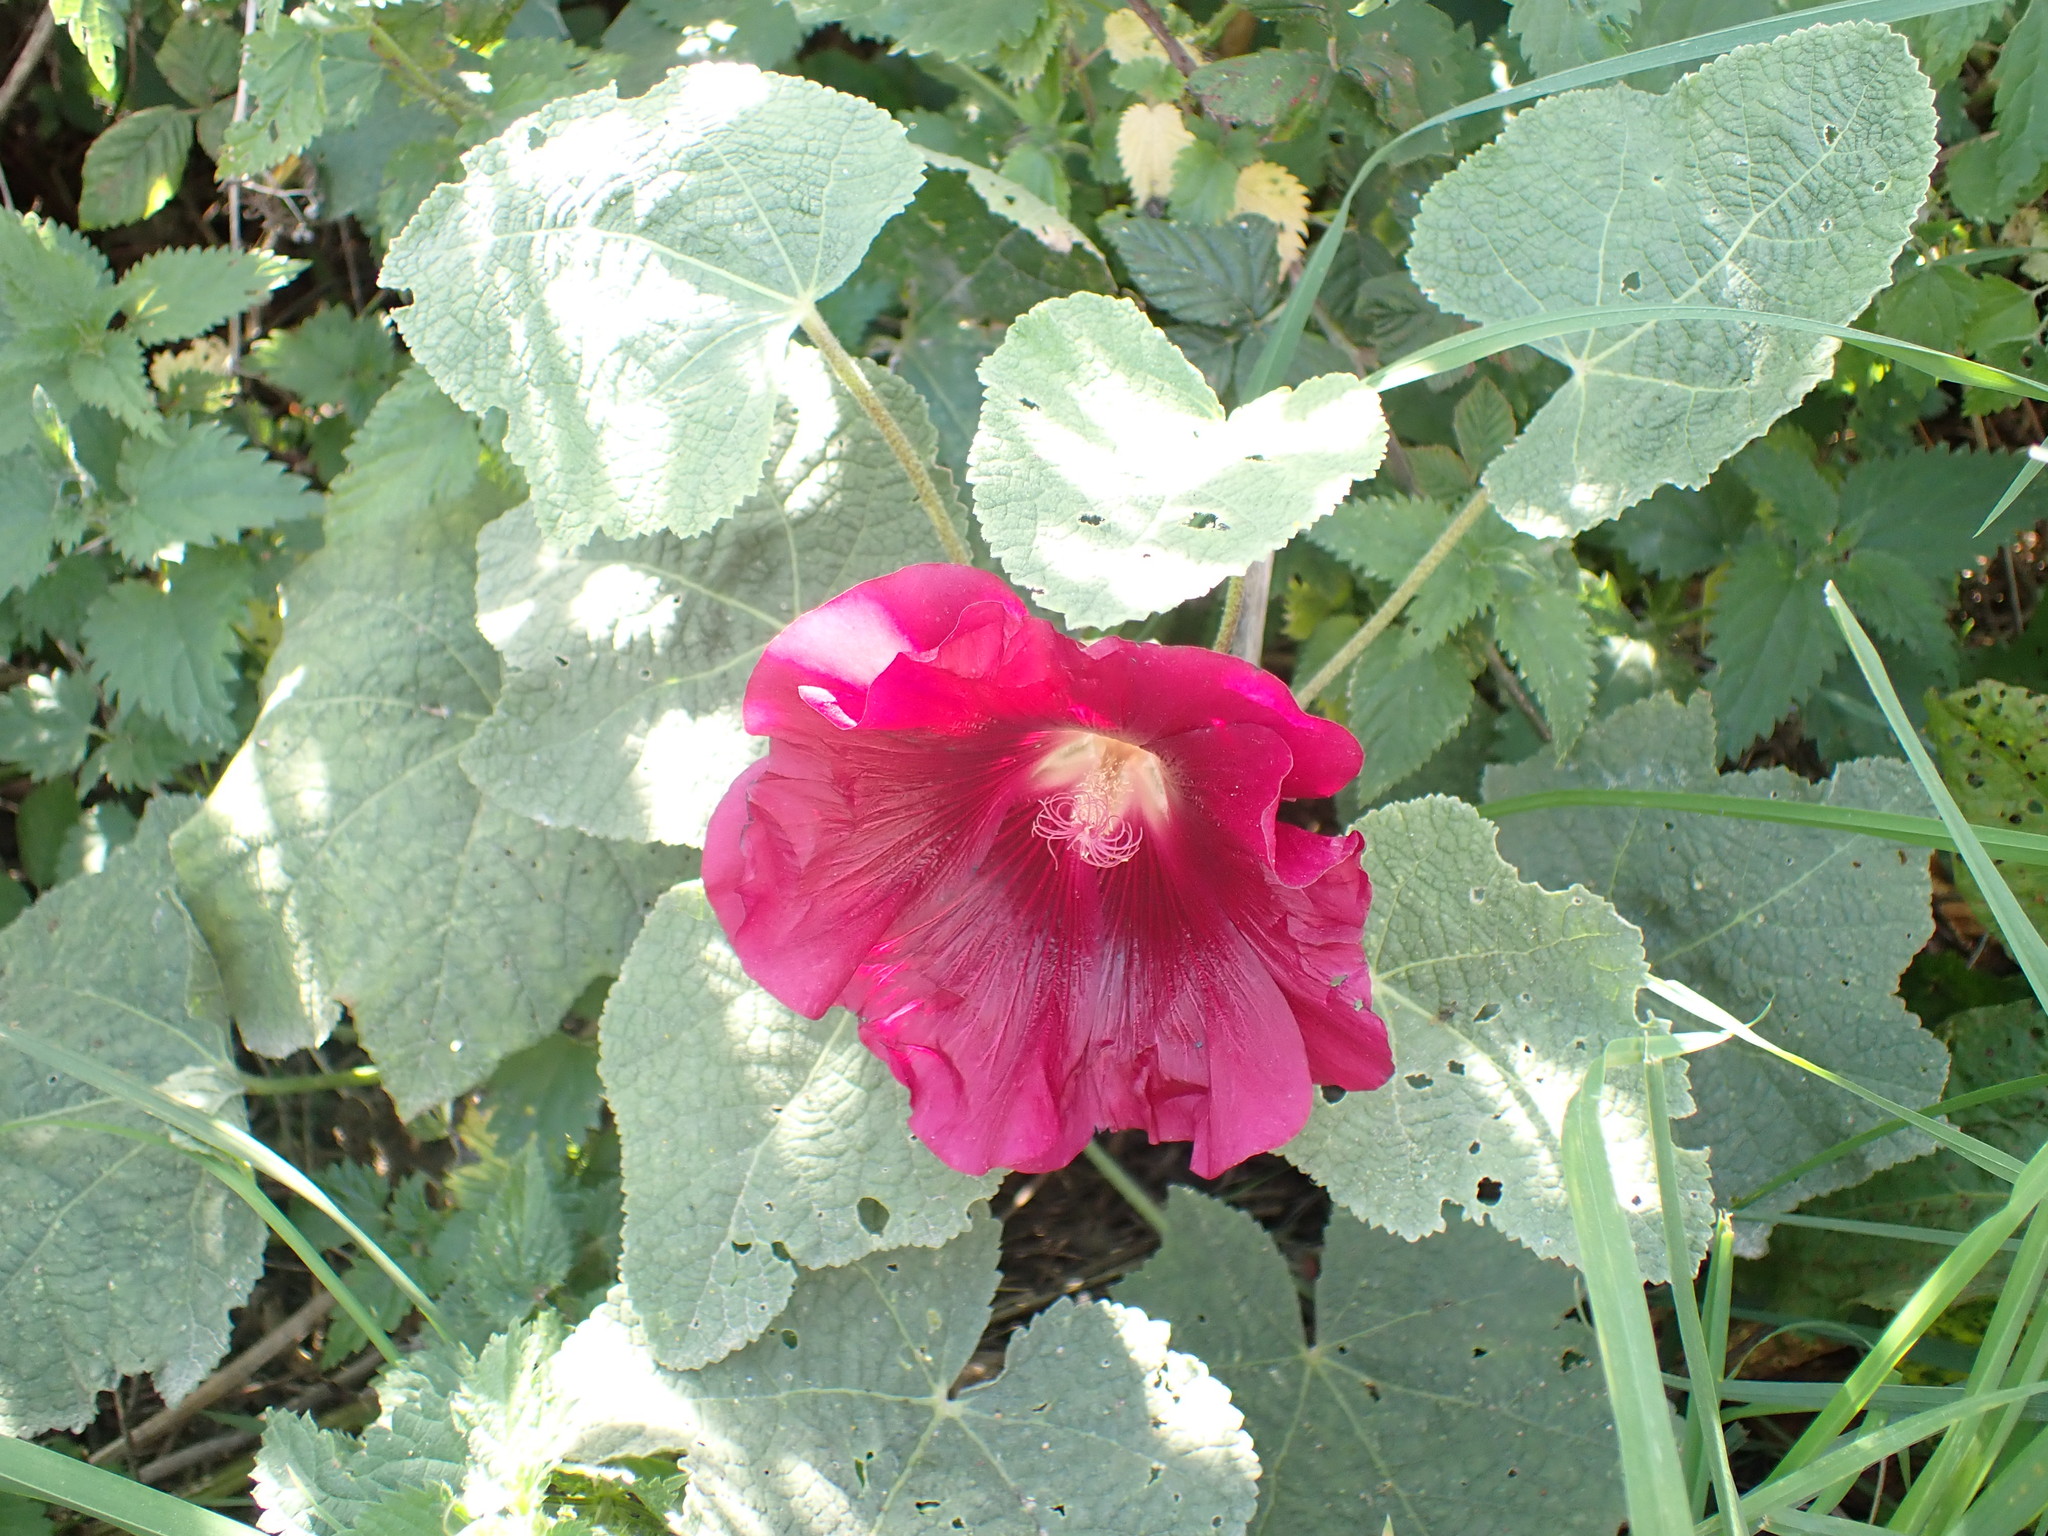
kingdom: Plantae
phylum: Tracheophyta
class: Magnoliopsida
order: Malvales
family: Malvaceae
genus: Alcea
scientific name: Alcea rosea
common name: Hollyhock
